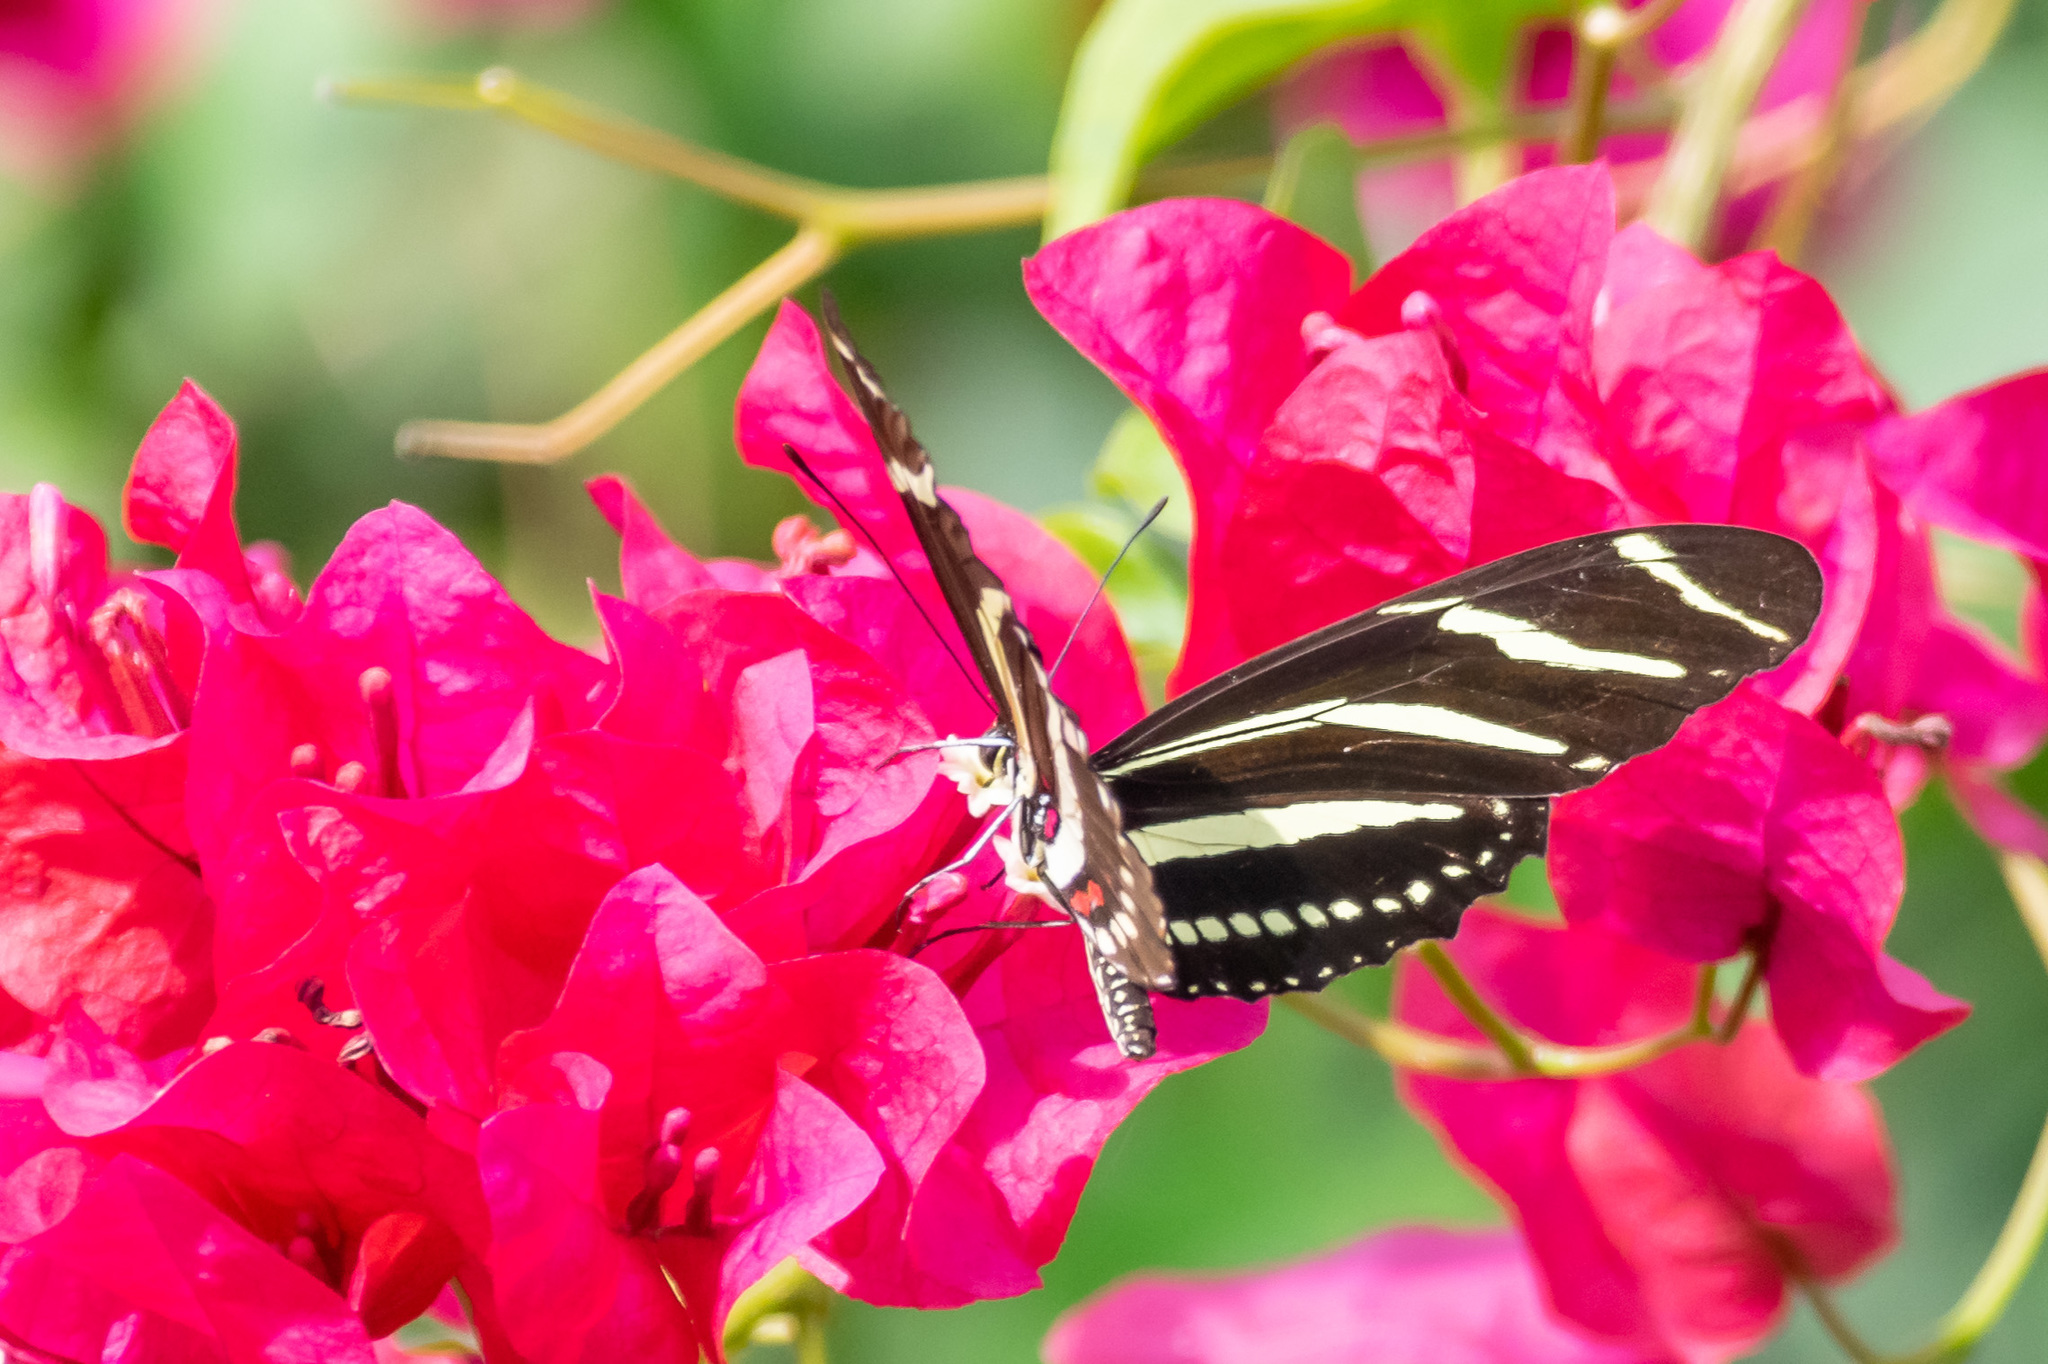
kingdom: Animalia
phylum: Arthropoda
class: Insecta
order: Lepidoptera
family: Nymphalidae
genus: Heliconius
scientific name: Heliconius charithonia
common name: Zebra long wing
